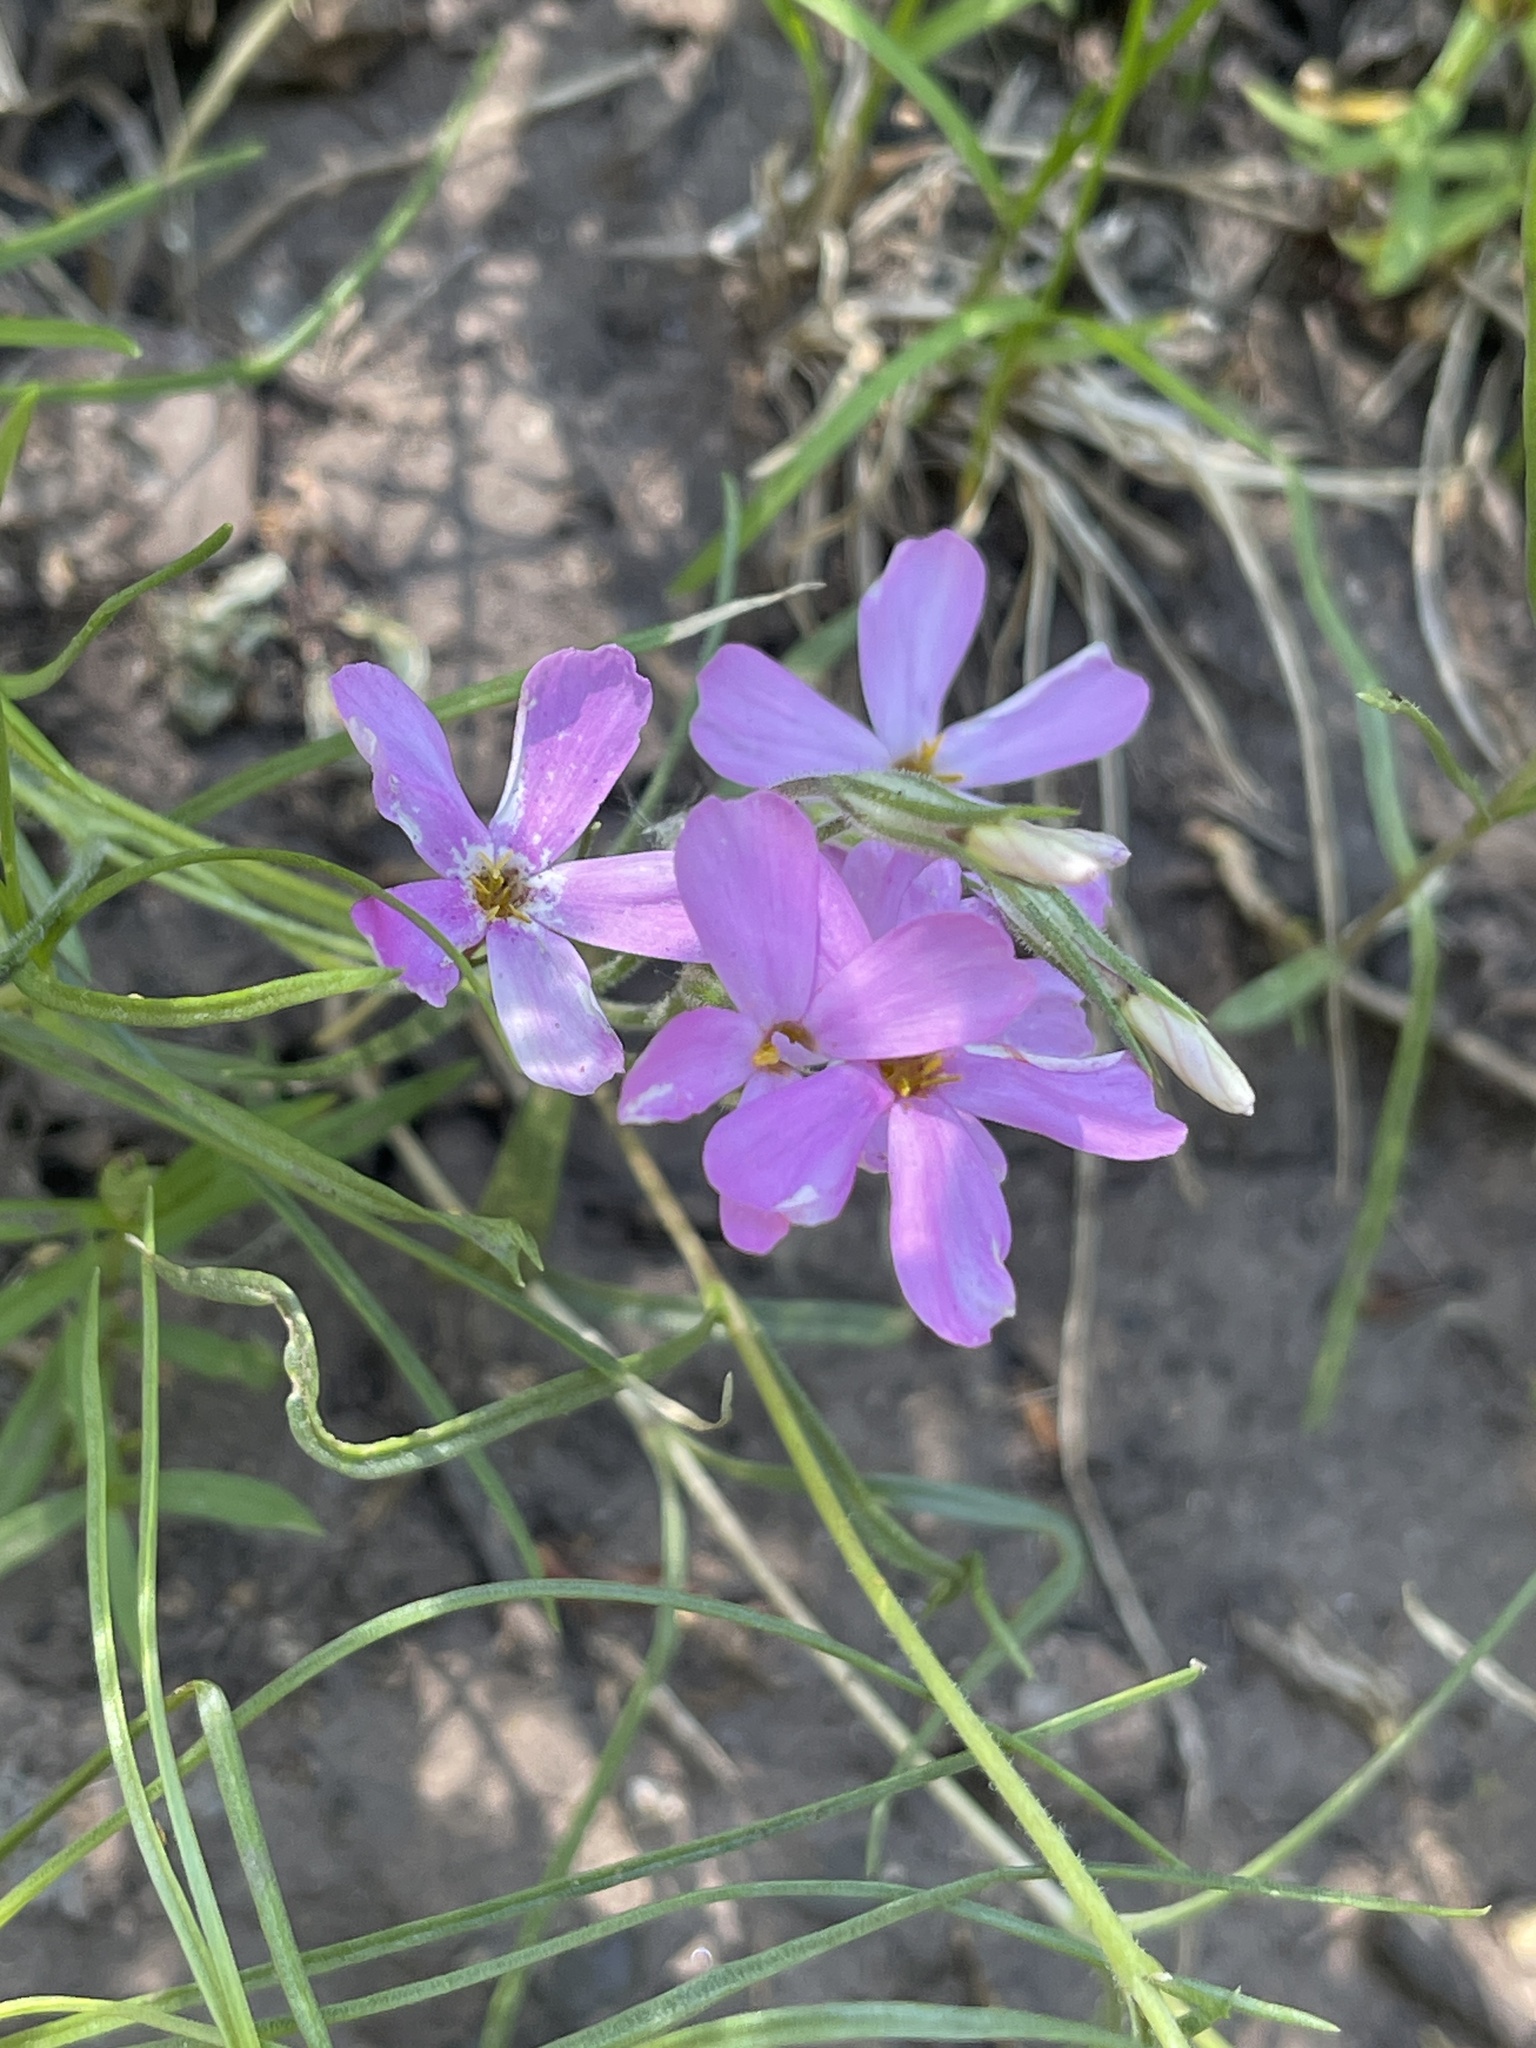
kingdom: Plantae
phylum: Tracheophyta
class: Magnoliopsida
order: Ericales
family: Polemoniaceae
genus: Phlox
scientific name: Phlox longifolia
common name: Longleaf phlox
